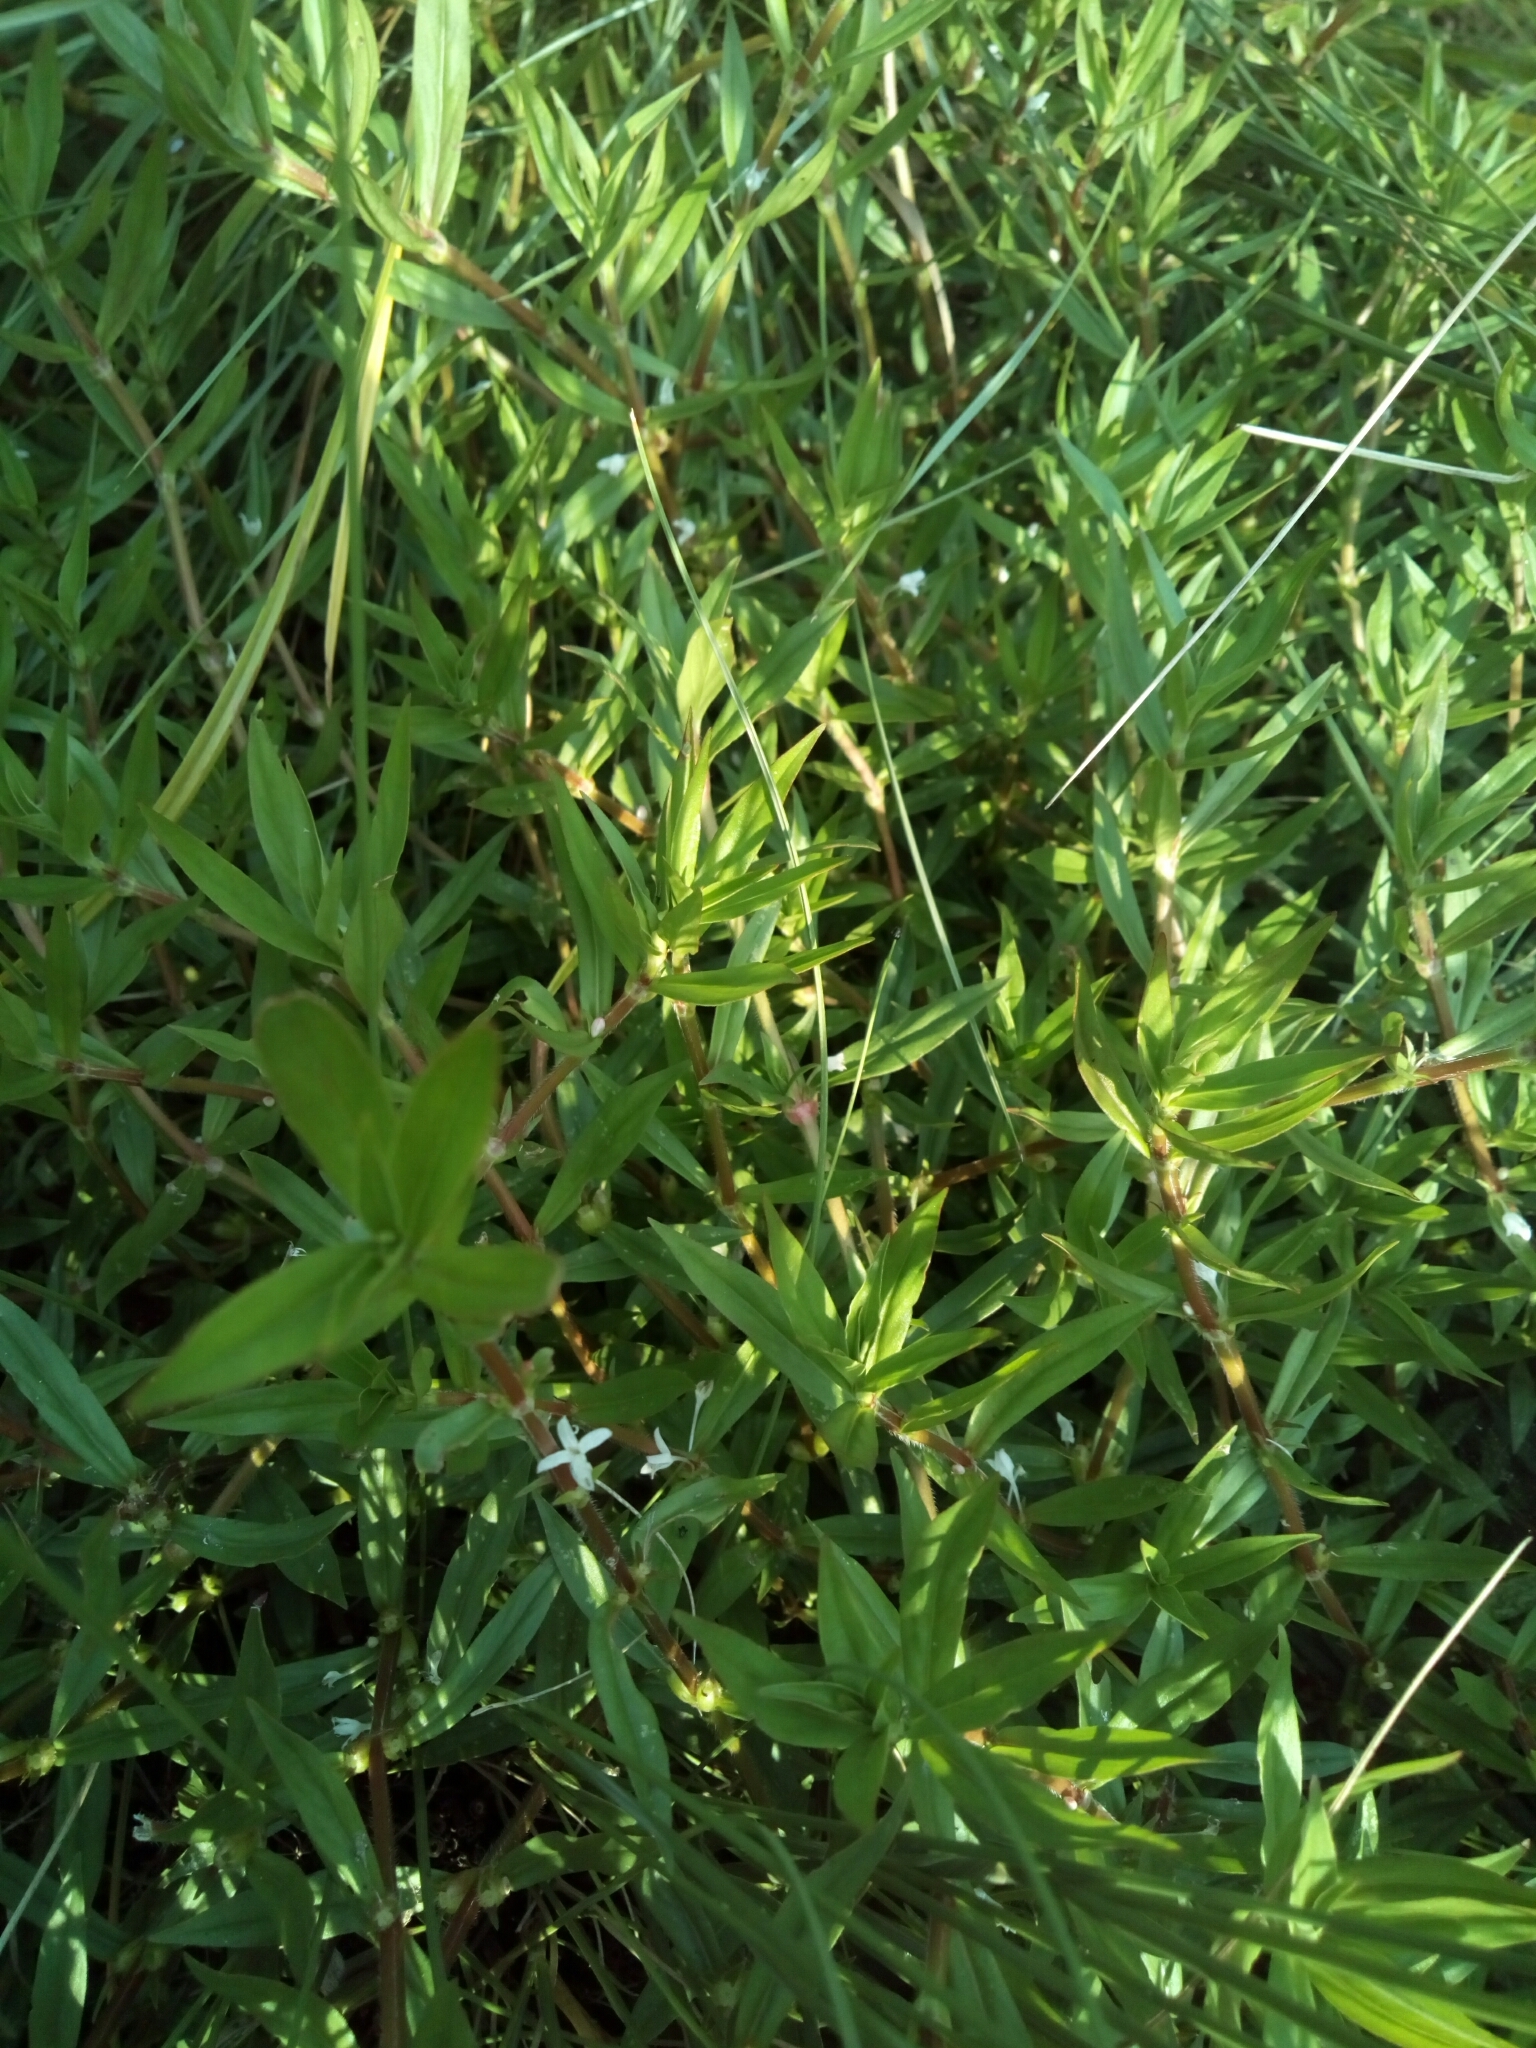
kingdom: Plantae
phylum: Tracheophyta
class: Magnoliopsida
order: Gentianales
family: Rubiaceae
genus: Diodia
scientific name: Diodia virginiana
